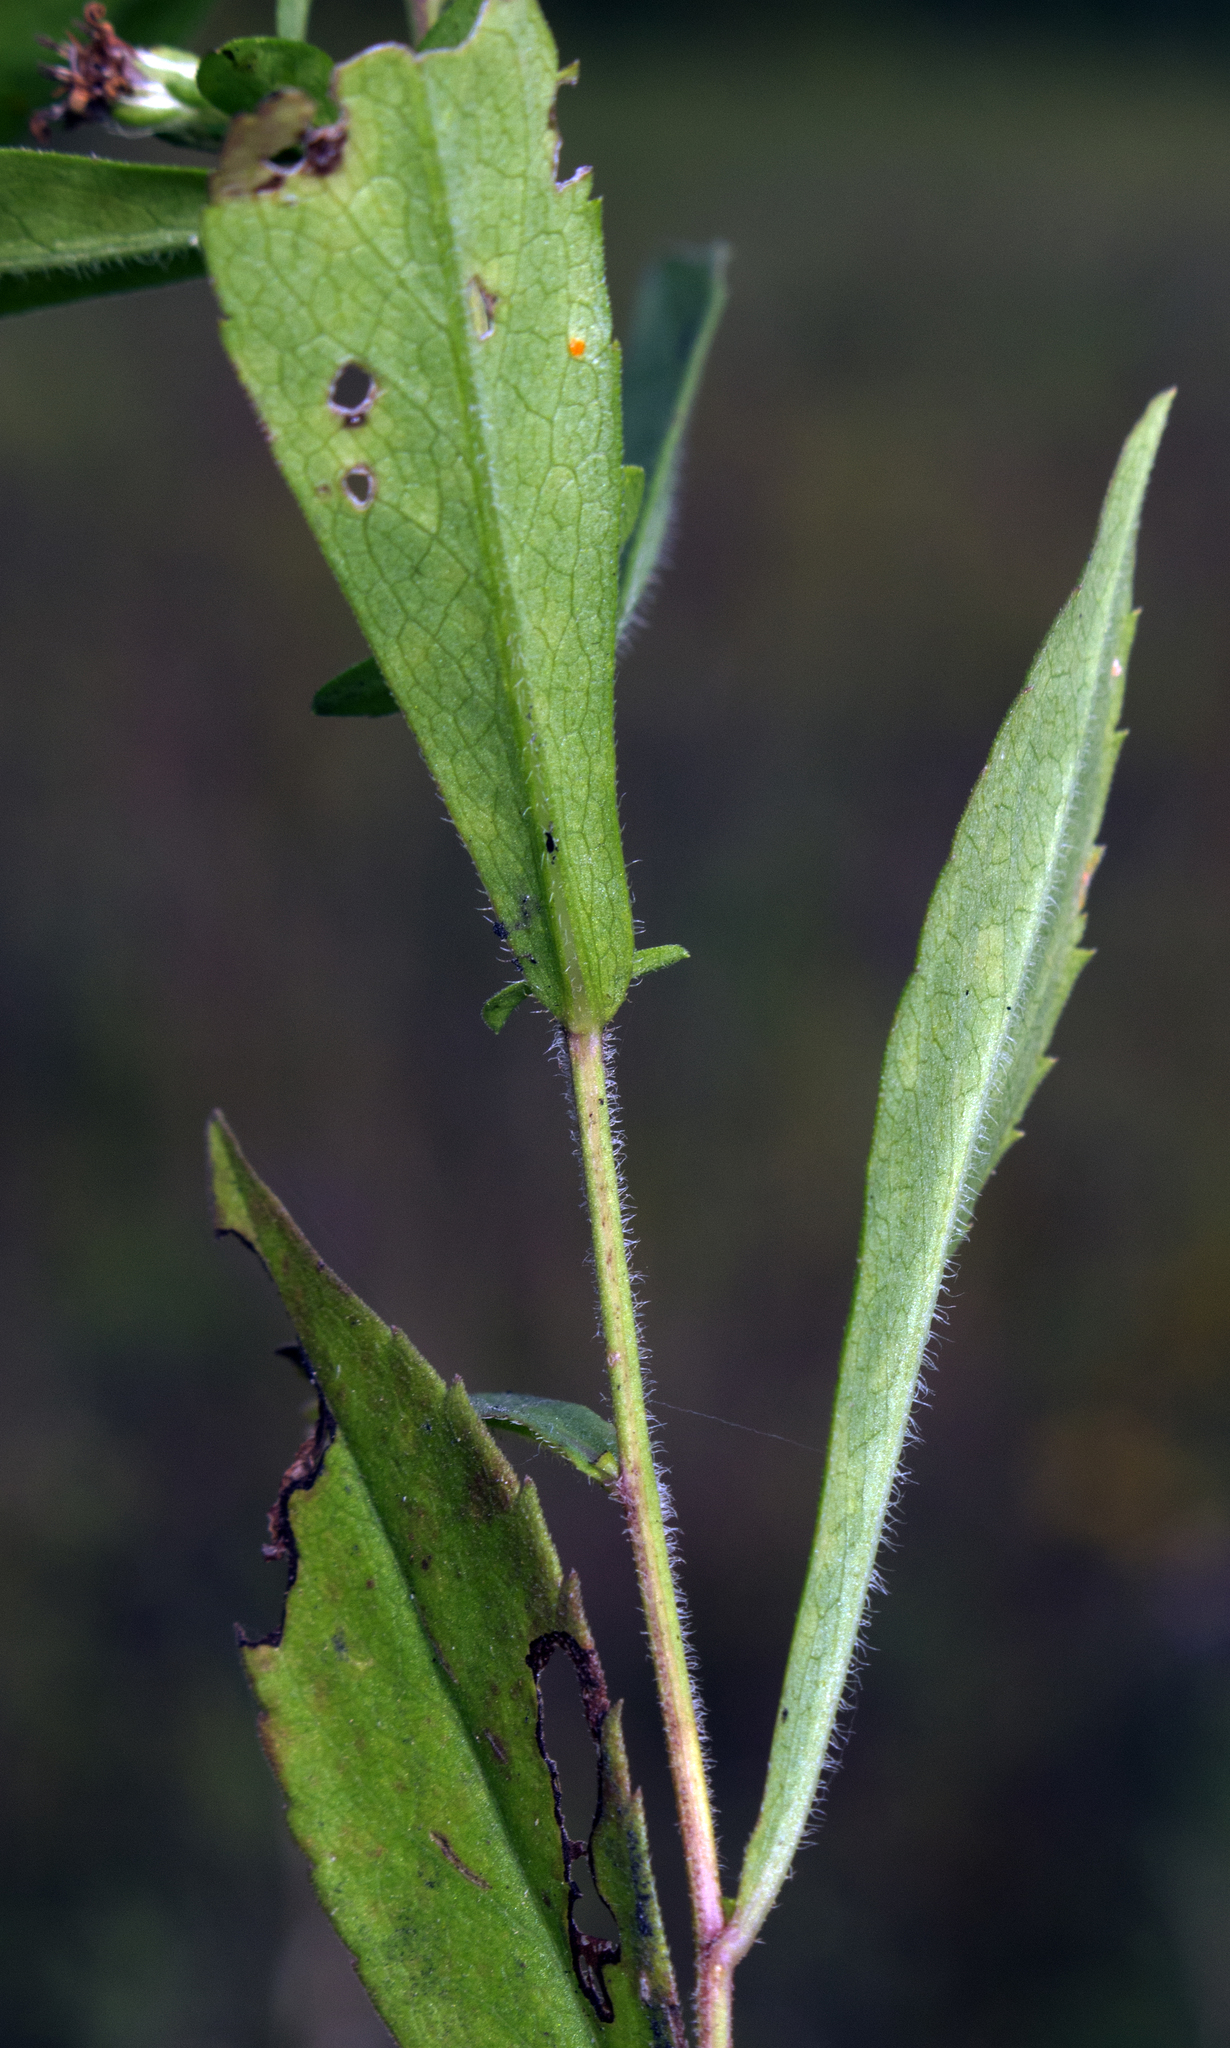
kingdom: Plantae
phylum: Tracheophyta
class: Magnoliopsida
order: Asterales
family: Asteraceae
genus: Symphyotrichum
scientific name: Symphyotrichum lateriflorum
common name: Calico aster
